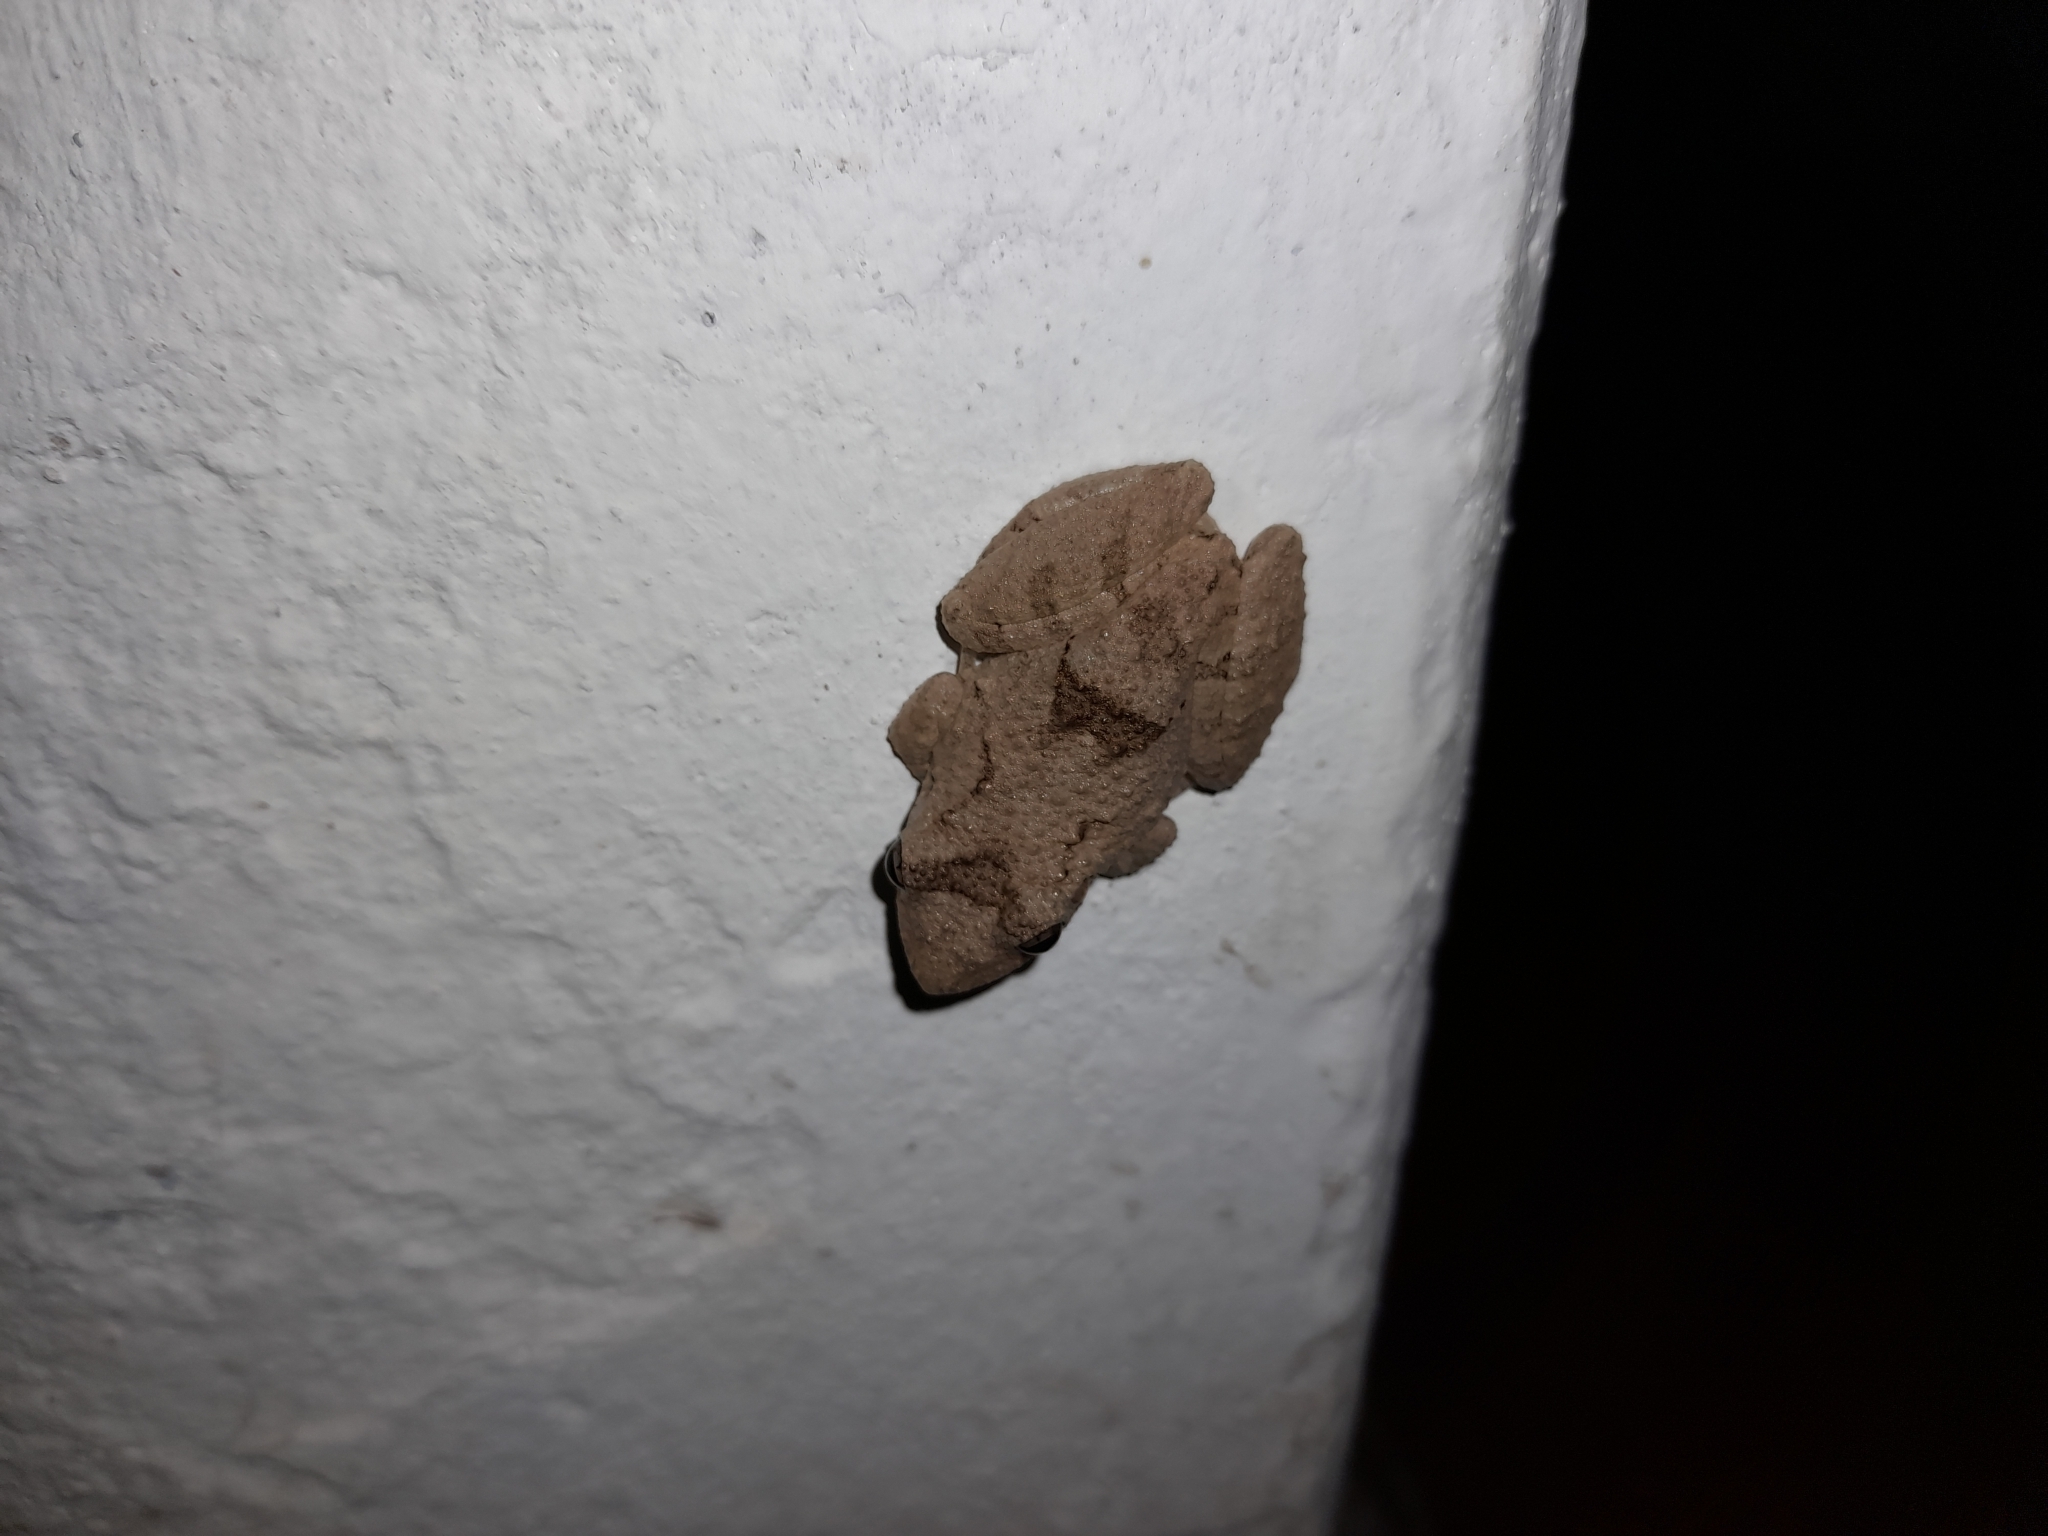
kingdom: Animalia
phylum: Chordata
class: Amphibia
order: Anura
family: Hylidae
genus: Scinax
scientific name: Scinax acuminatus
